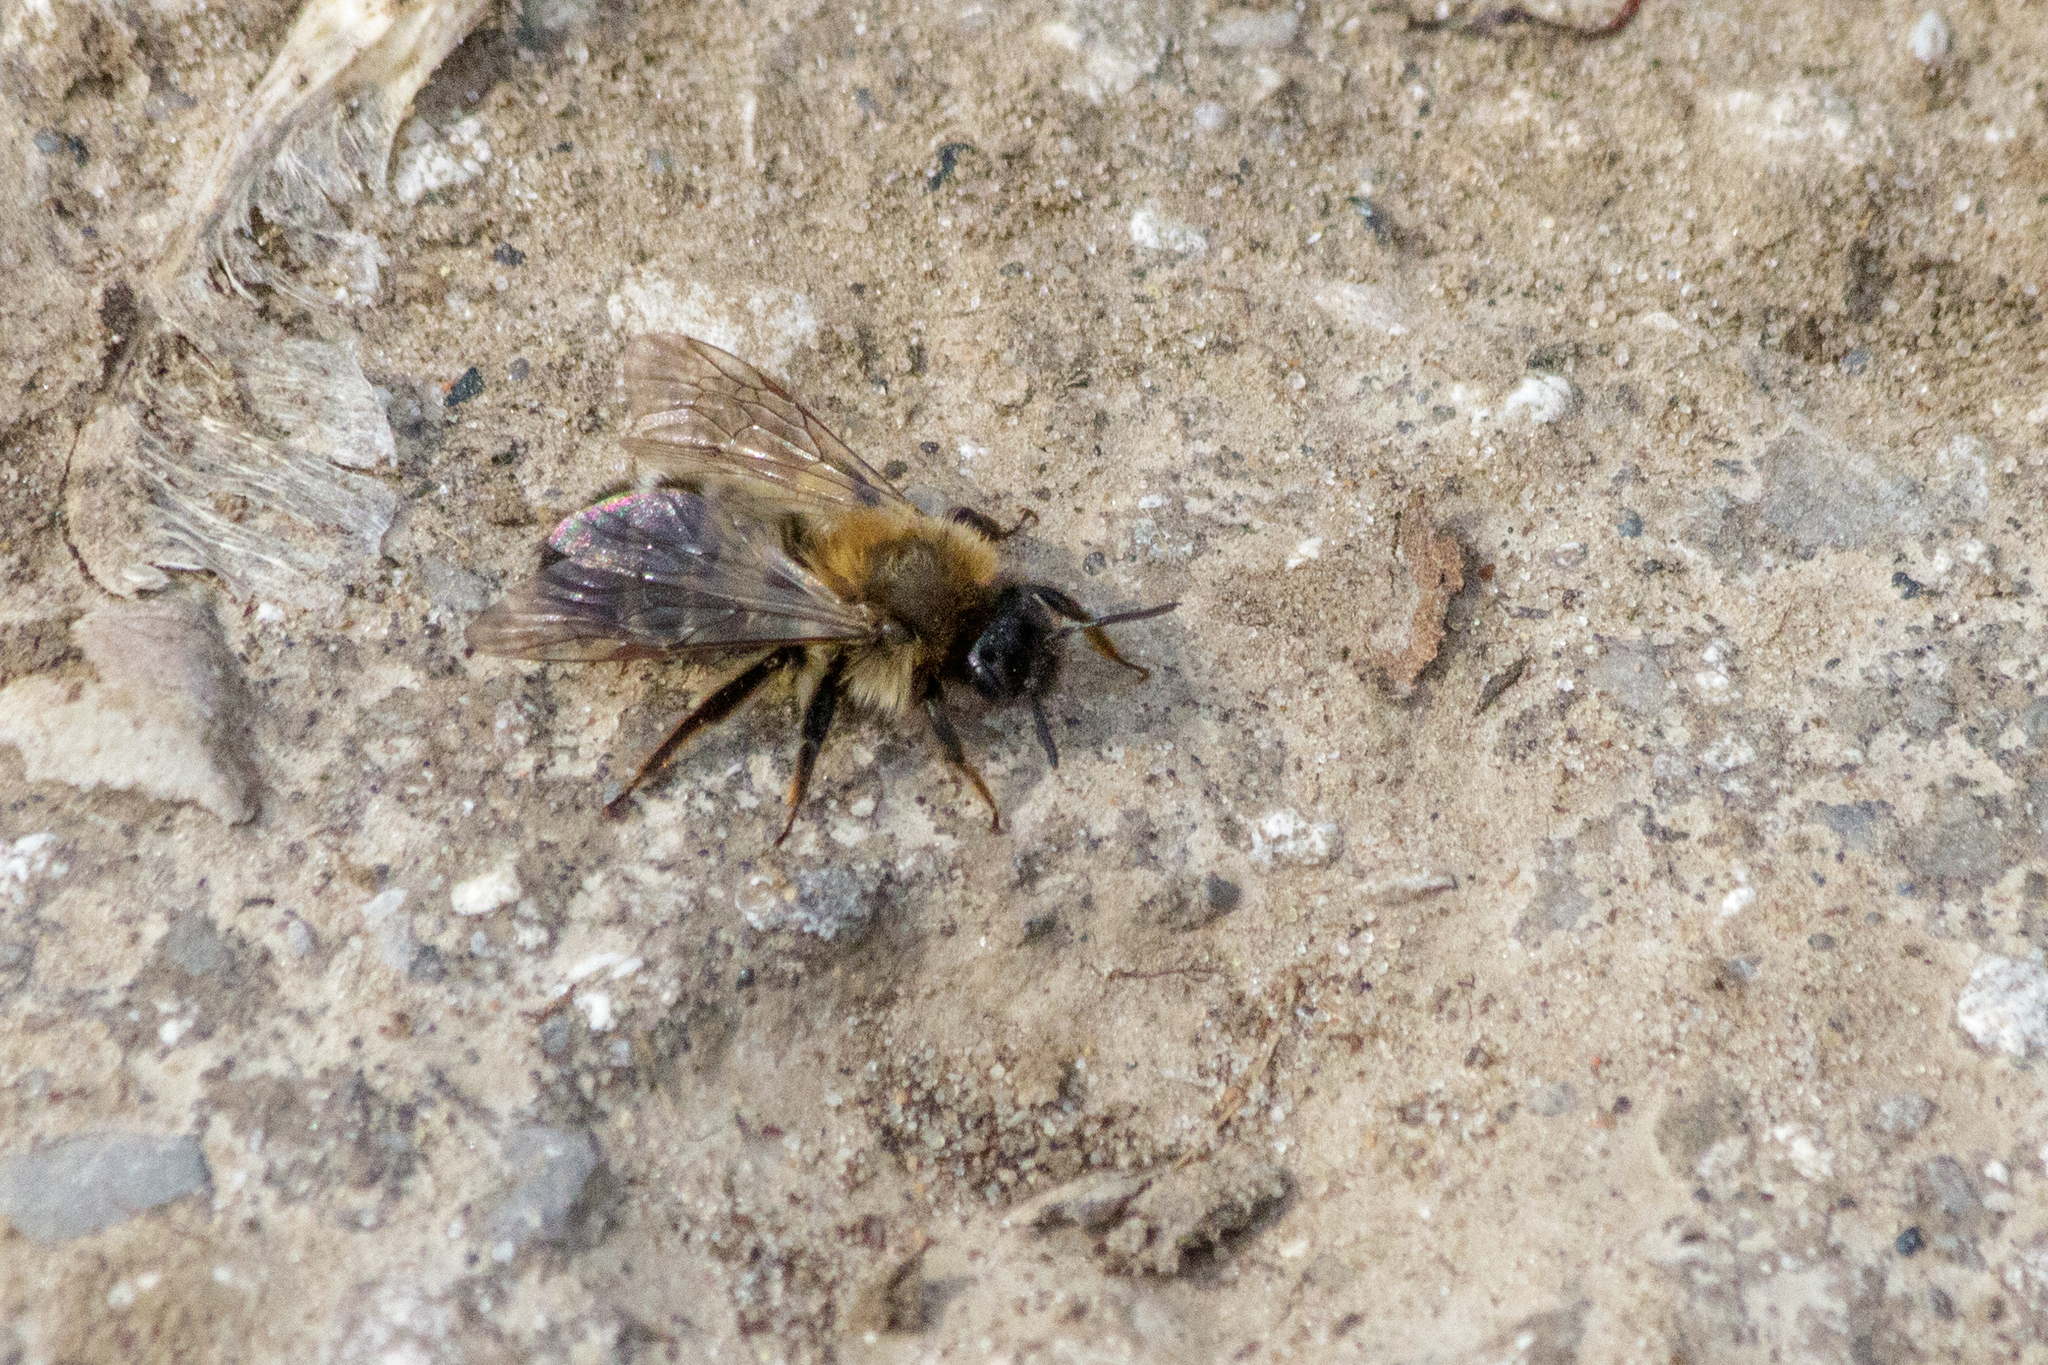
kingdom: Animalia
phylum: Arthropoda
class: Insecta
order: Hymenoptera
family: Colletidae
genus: Colletes
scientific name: Colletes cunicularius
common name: Early colletes
